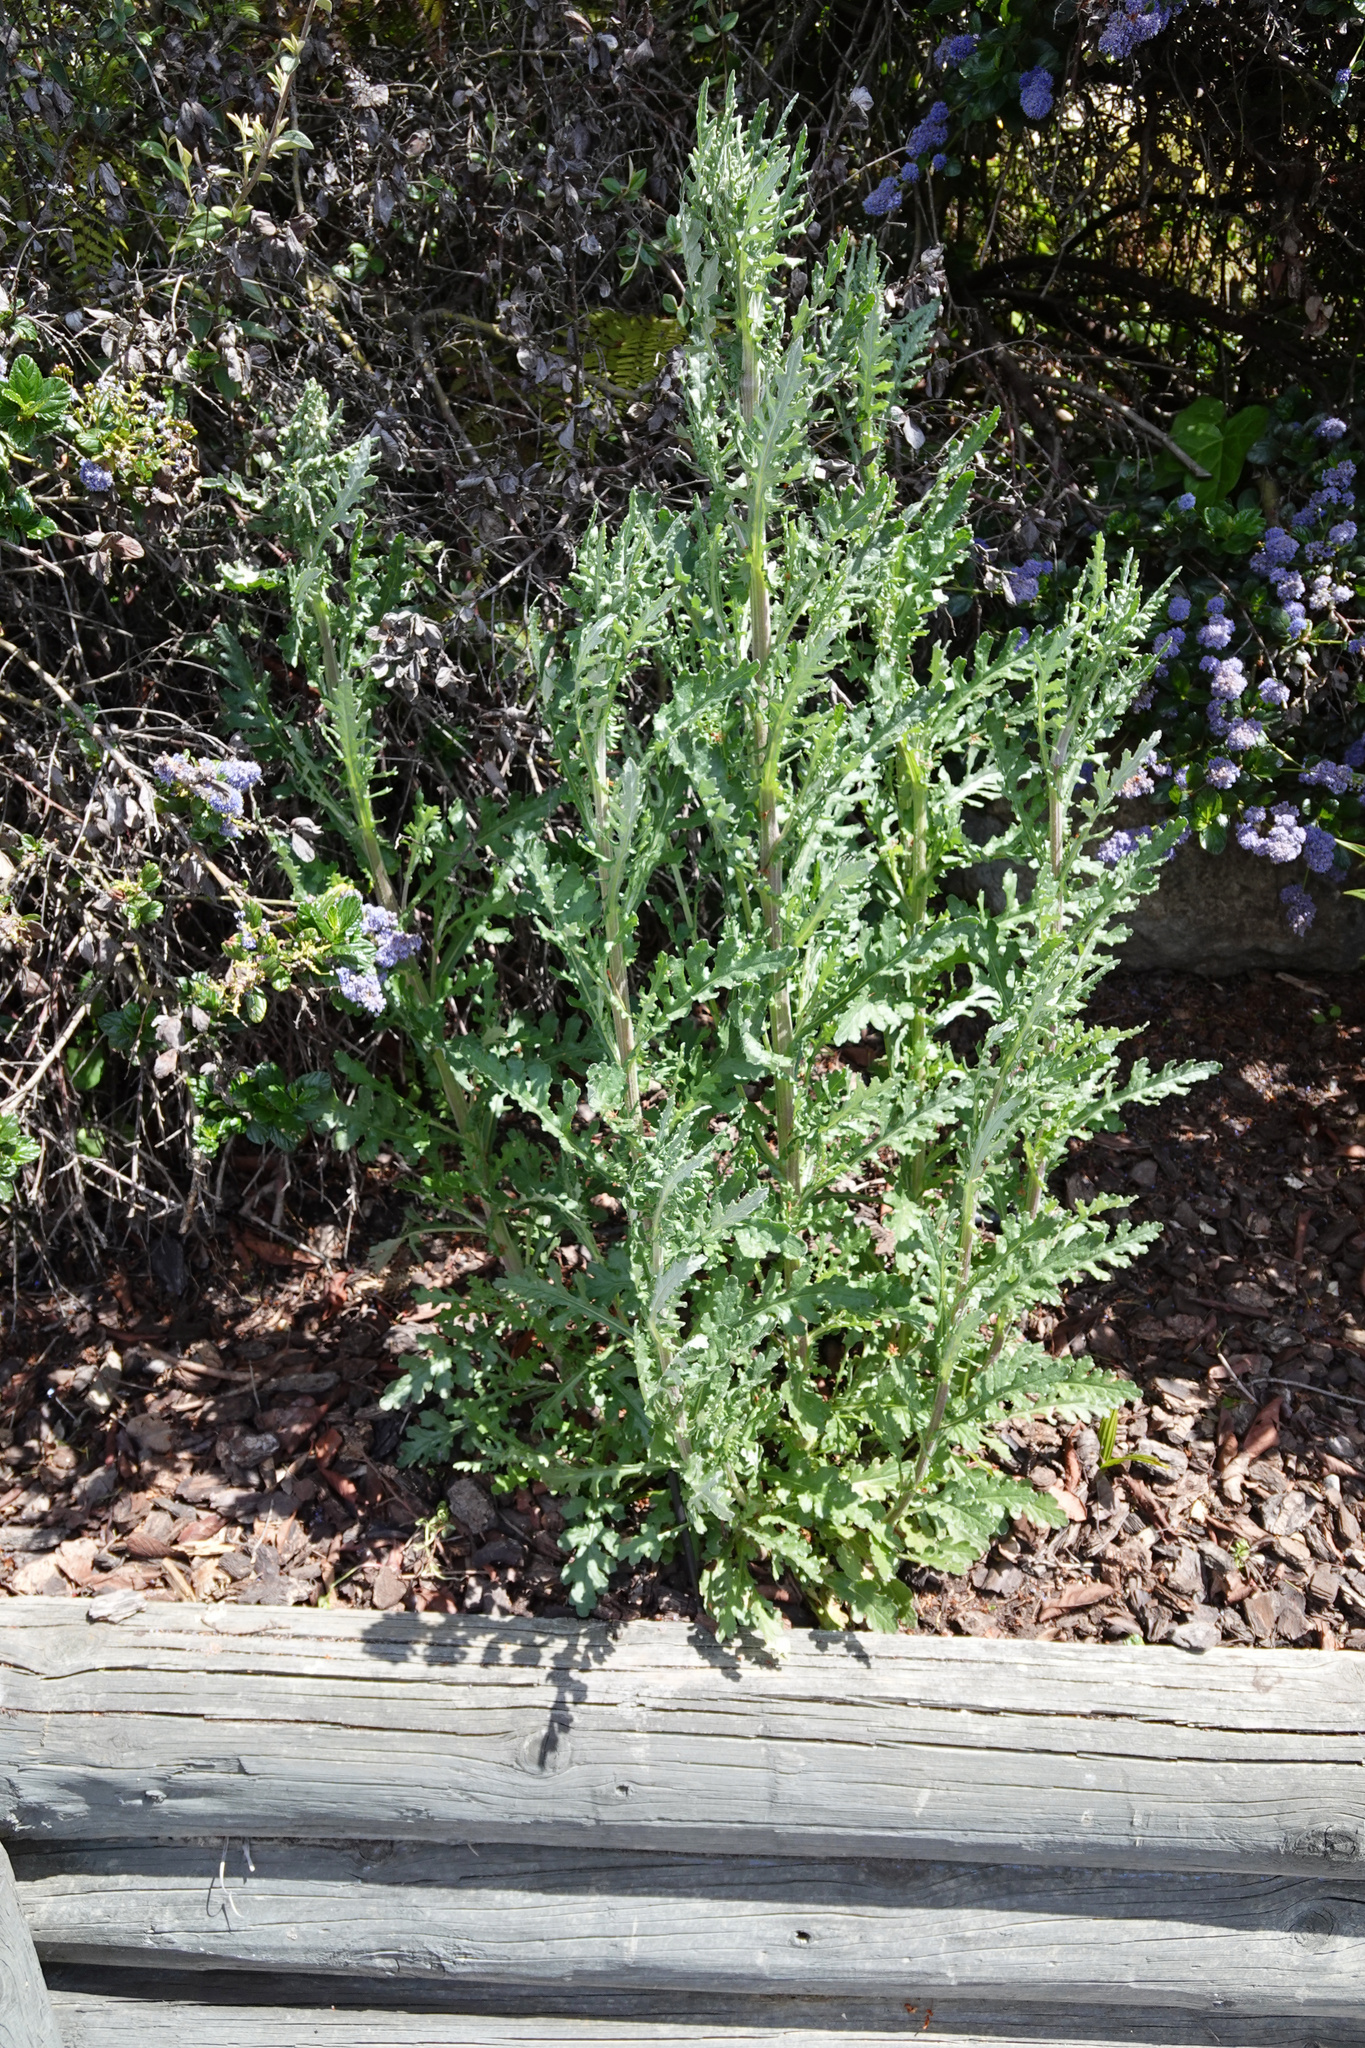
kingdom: Plantae
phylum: Tracheophyta
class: Magnoliopsida
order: Asterales
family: Asteraceae
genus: Senecio
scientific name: Senecio glomeratus
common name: Cutleaf burnweed
